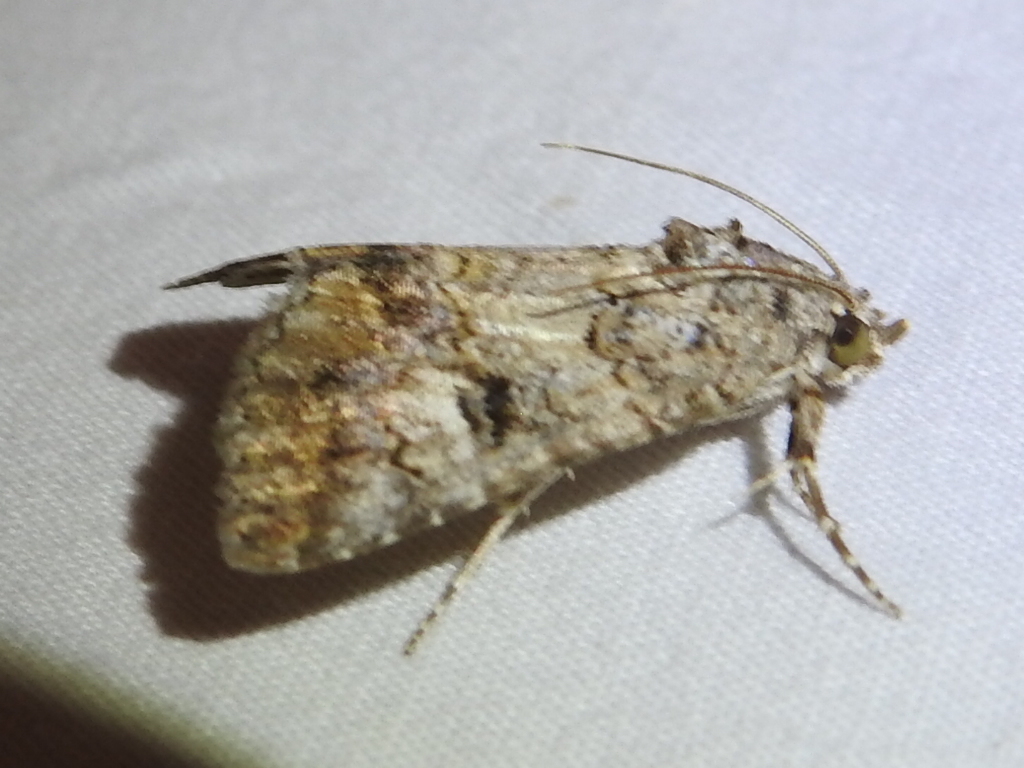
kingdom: Animalia
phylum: Arthropoda
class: Insecta
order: Lepidoptera
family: Erebidae
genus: Eubolina
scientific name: Eubolina impartialis
